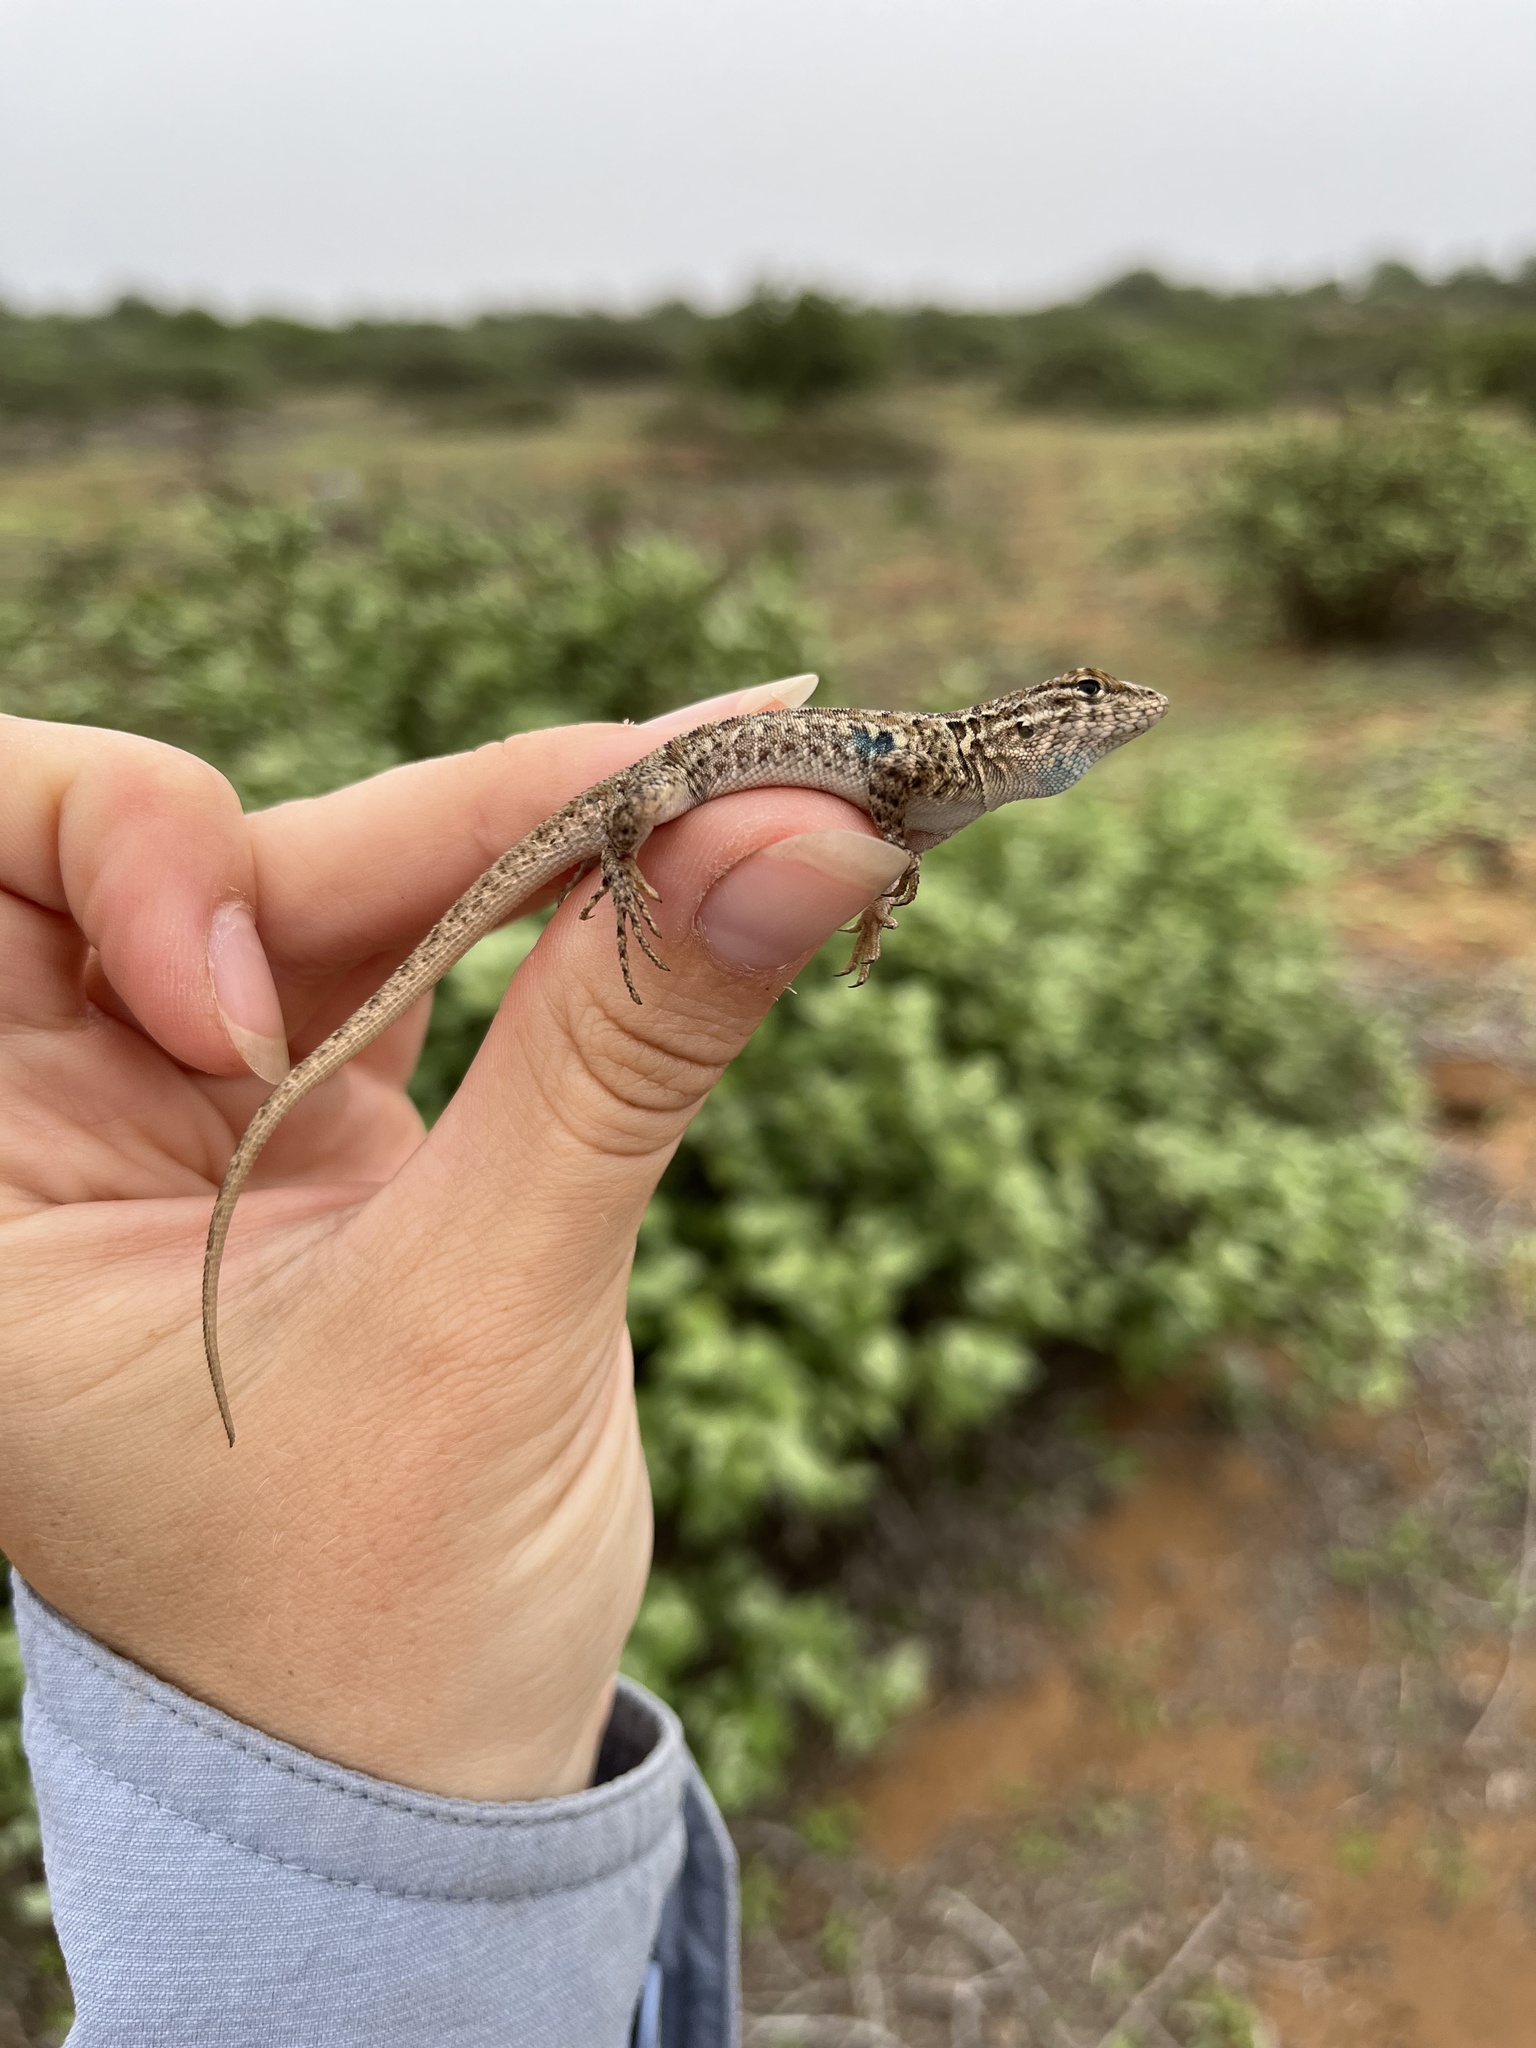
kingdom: Animalia
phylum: Chordata
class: Squamata
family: Phrynosomatidae
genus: Uta
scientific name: Uta stansburiana
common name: Side-blotched lizard
